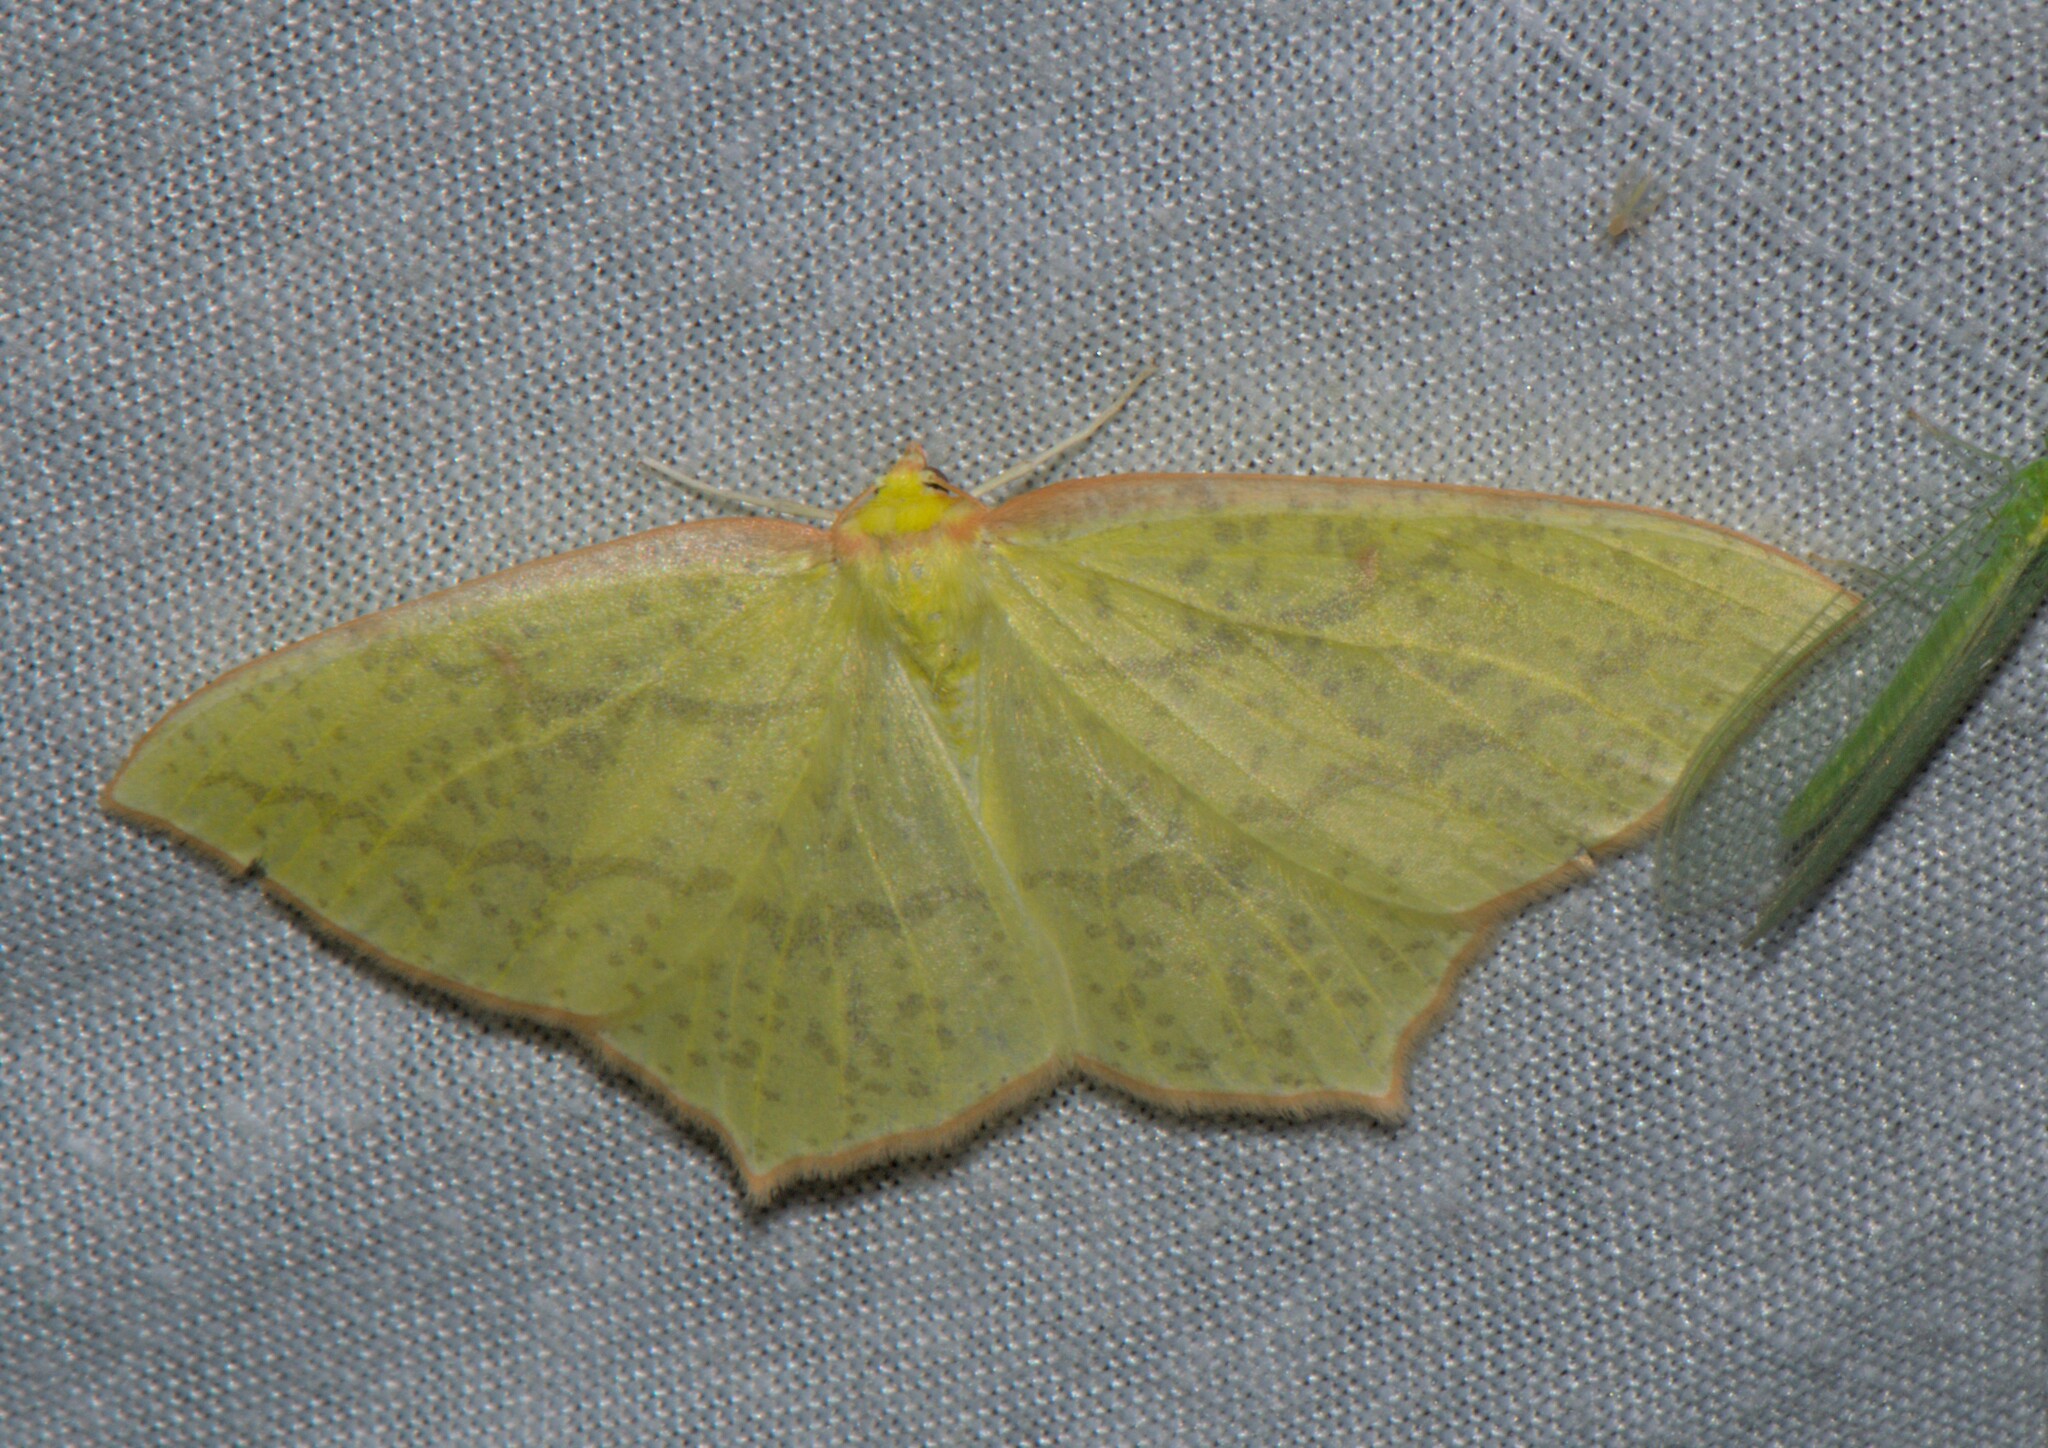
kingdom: Animalia
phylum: Arthropoda
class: Insecta
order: Lepidoptera
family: Geometridae
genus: Sirinopteryx
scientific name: Sirinopteryx rufivinctata
